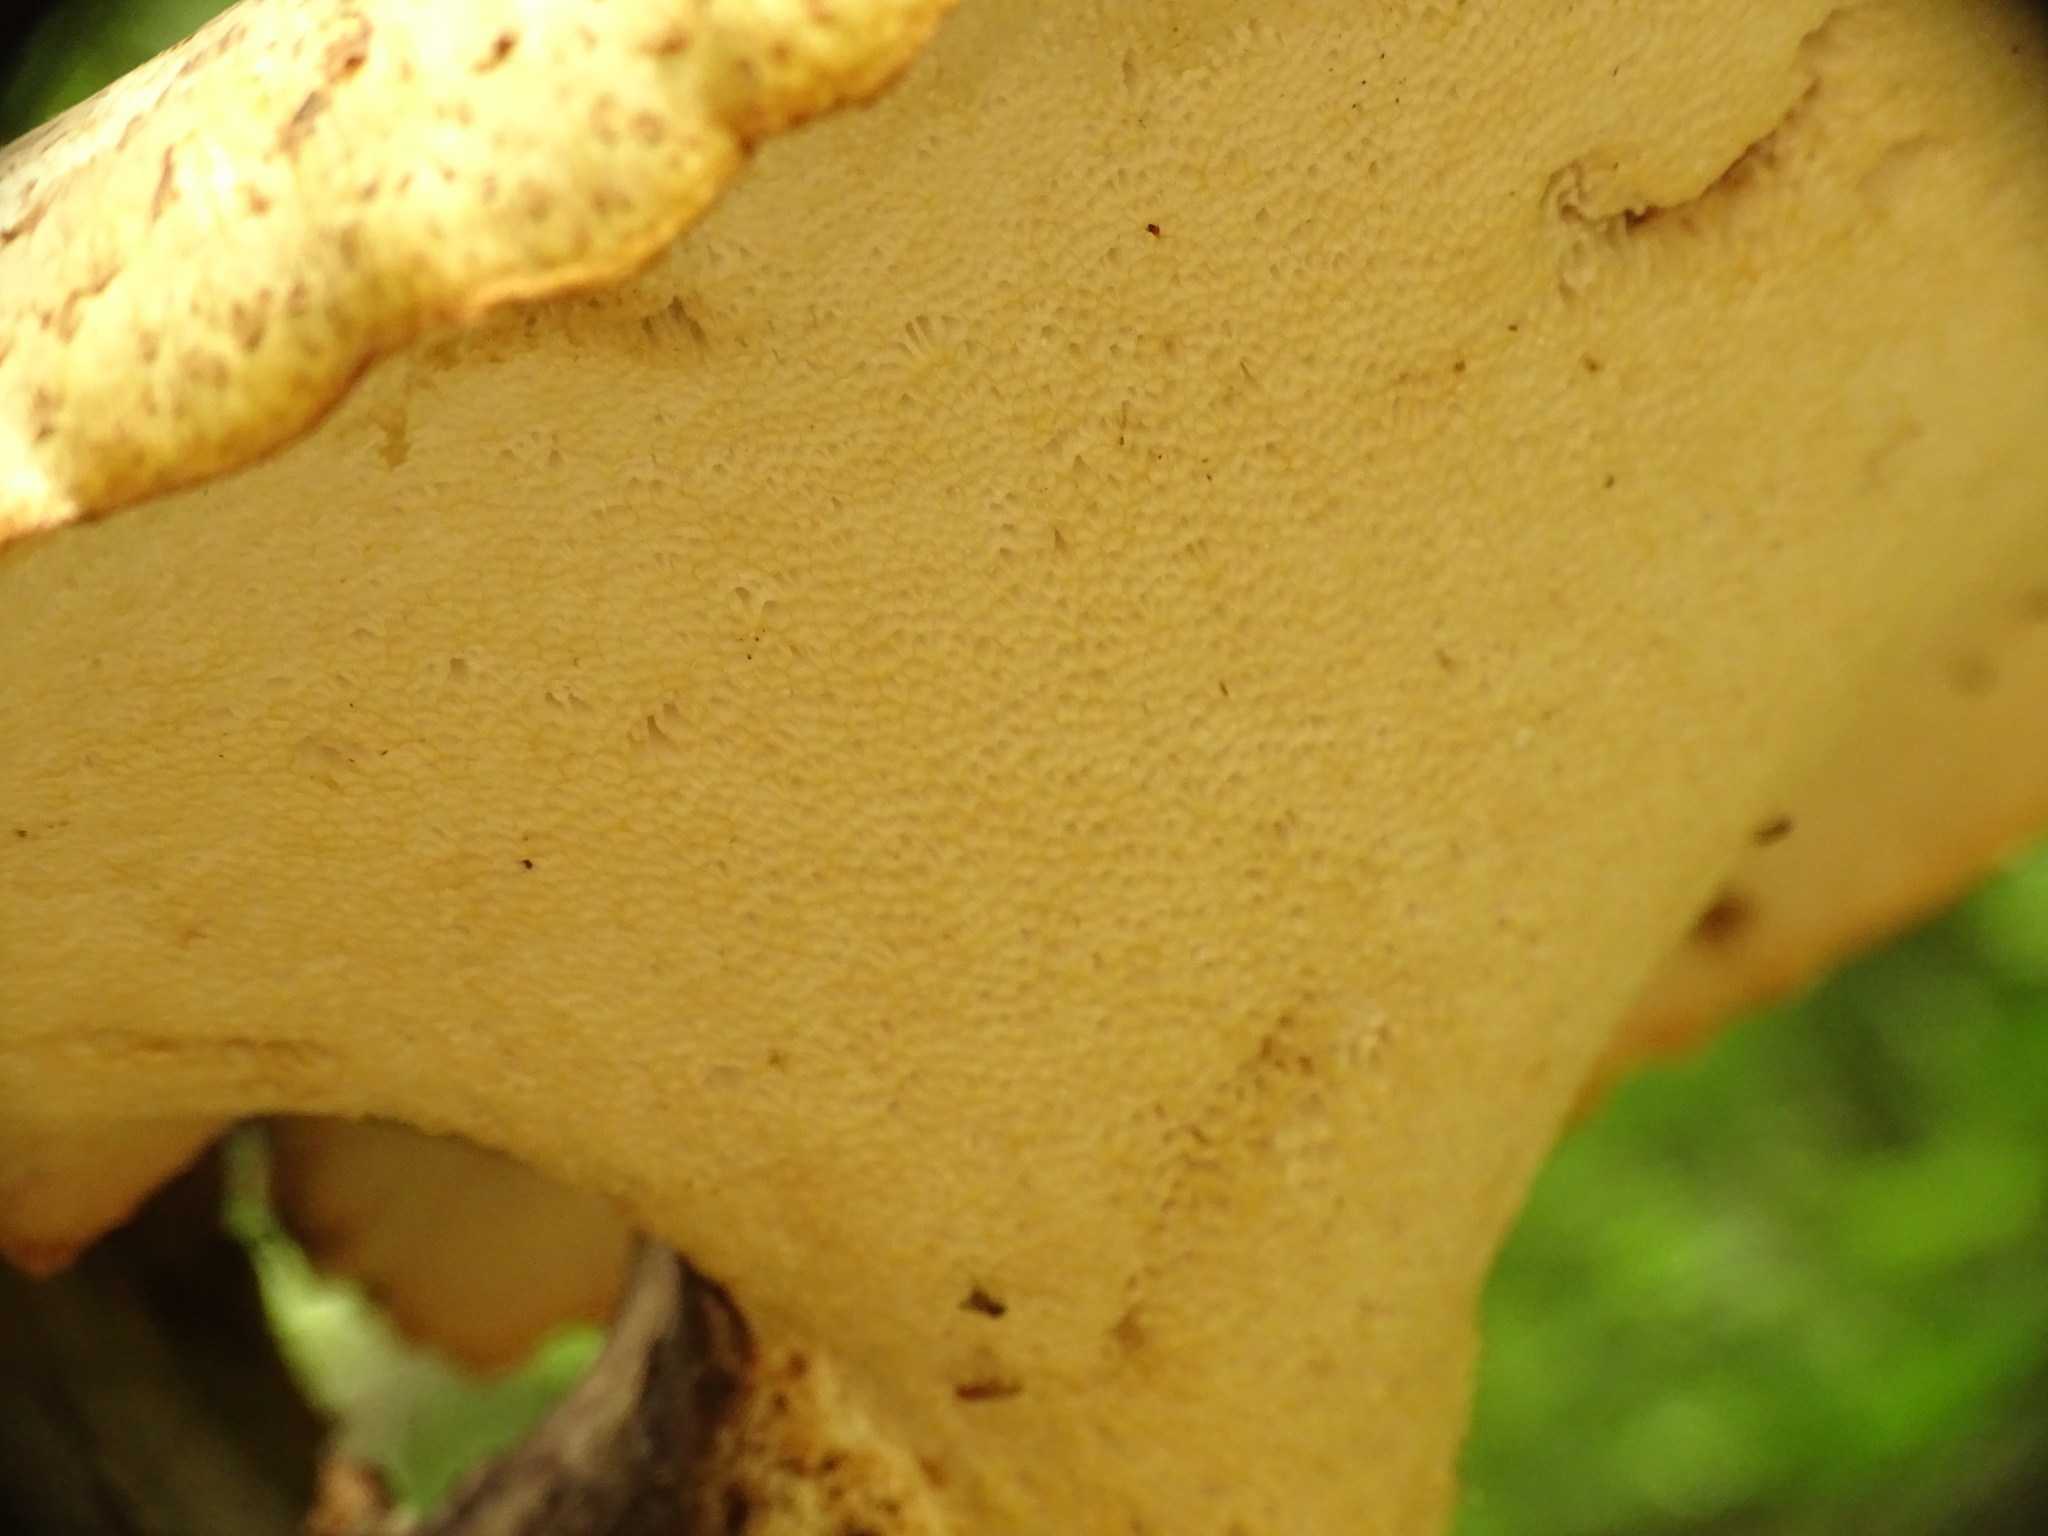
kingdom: Fungi
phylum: Basidiomycota
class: Agaricomycetes
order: Polyporales
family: Polyporaceae
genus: Cerioporus
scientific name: Cerioporus squamosus
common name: Dryad's saddle
